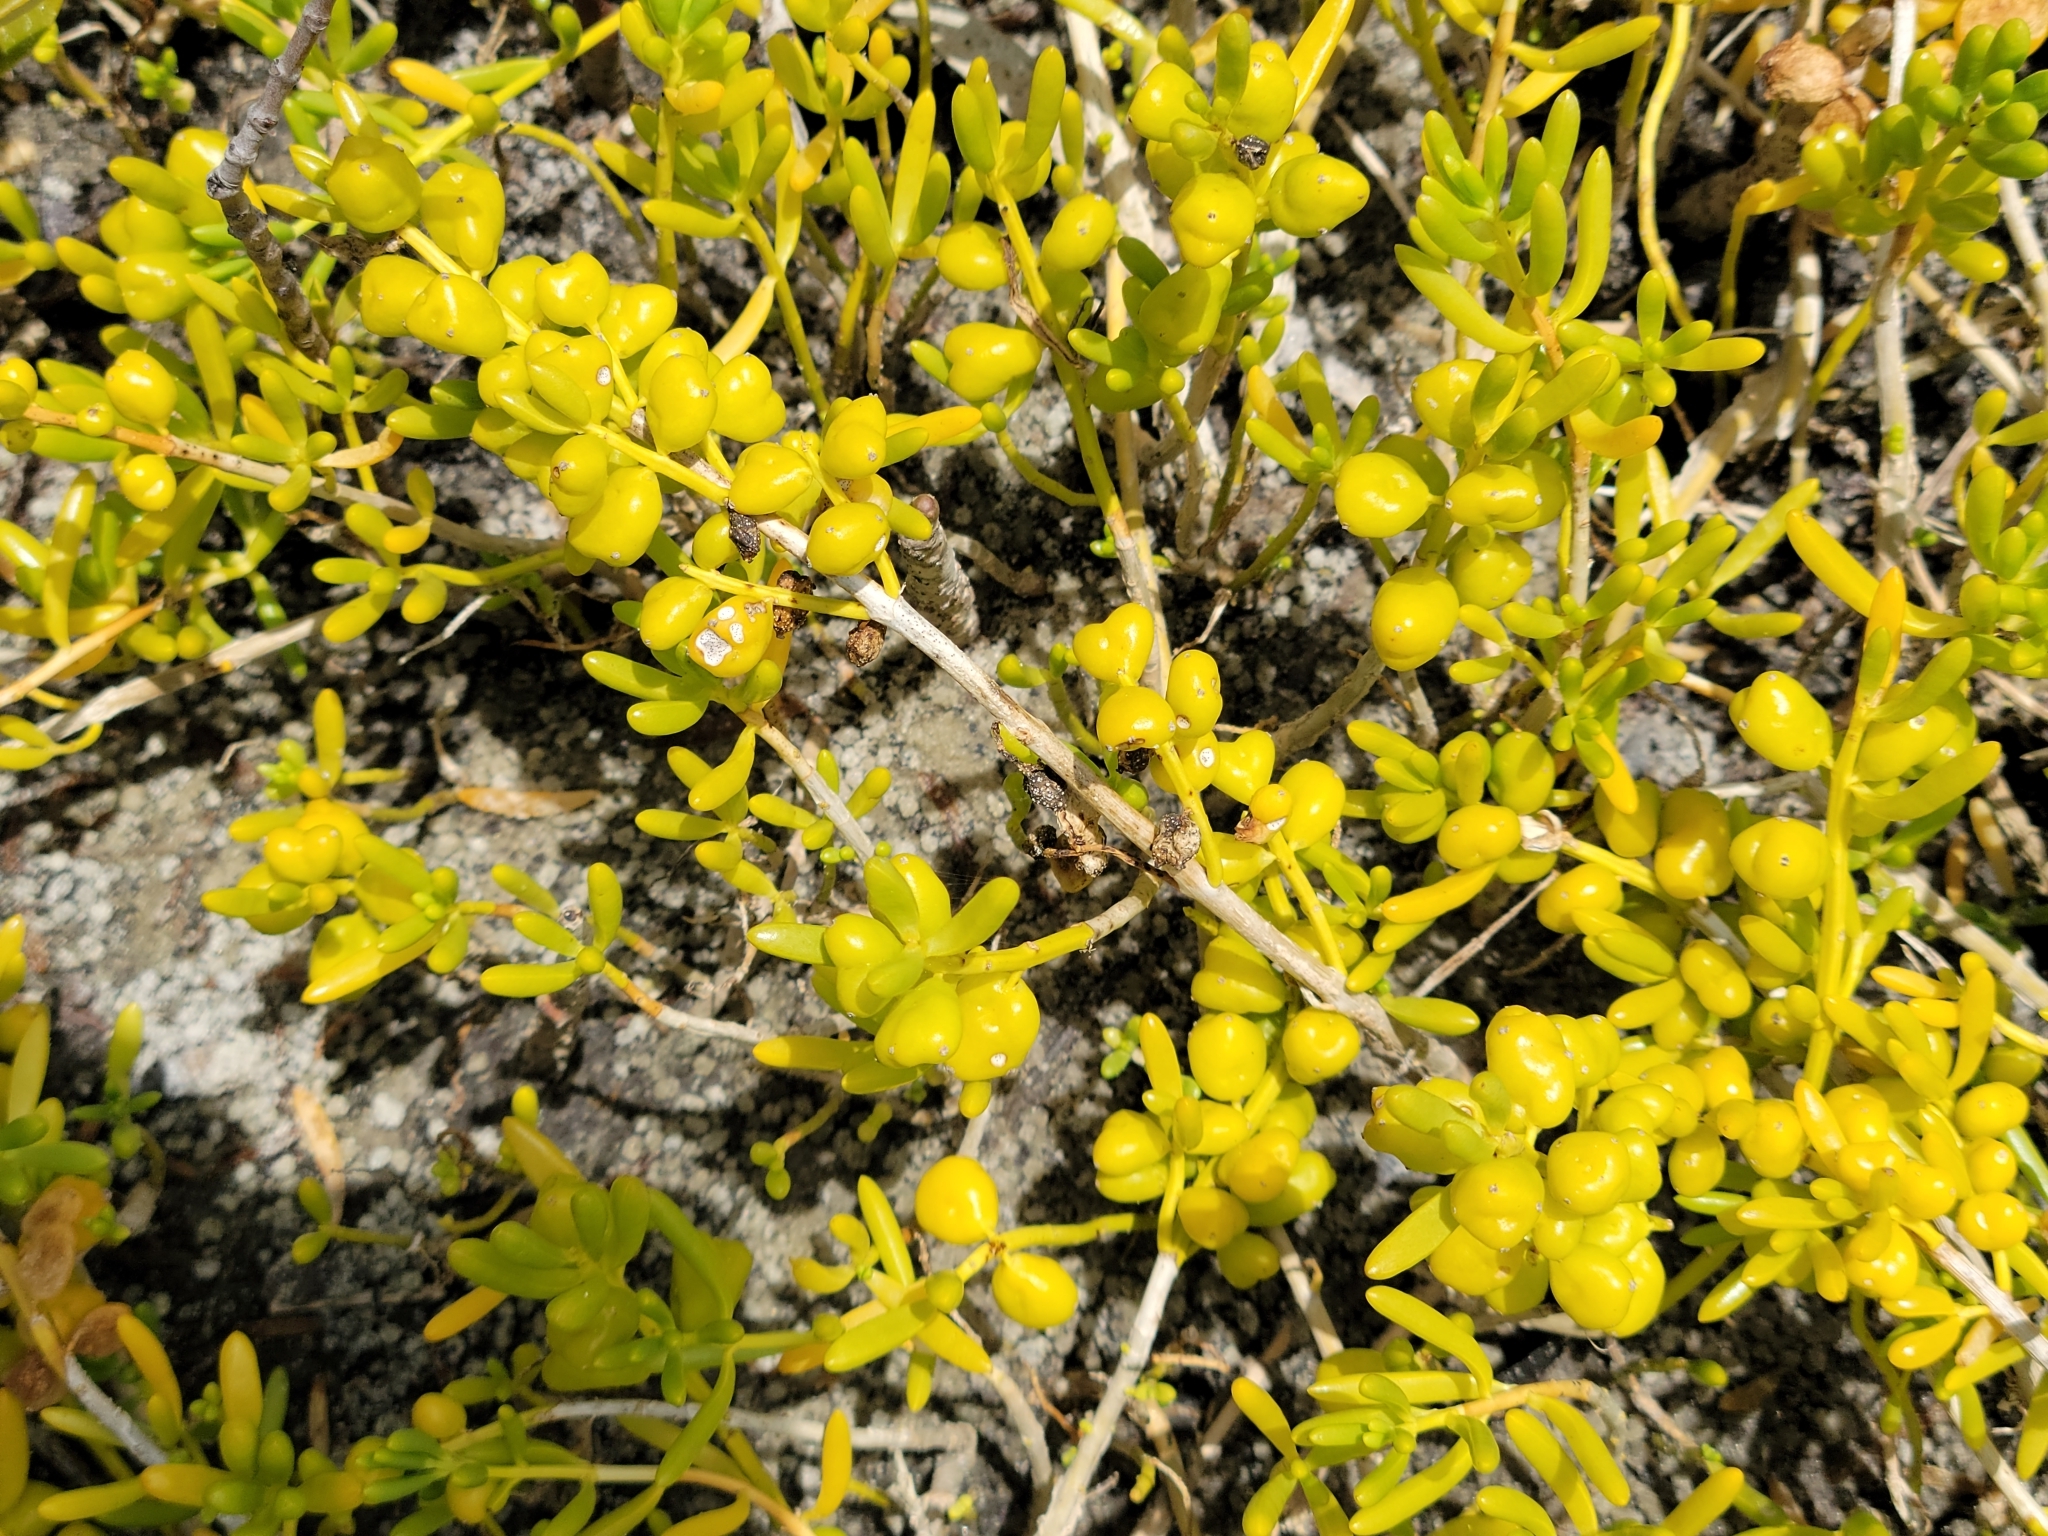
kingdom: Plantae
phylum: Tracheophyta
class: Magnoliopsida
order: Brassicales
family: Bataceae
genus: Batis
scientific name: Batis maritima
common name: Turtleweed
